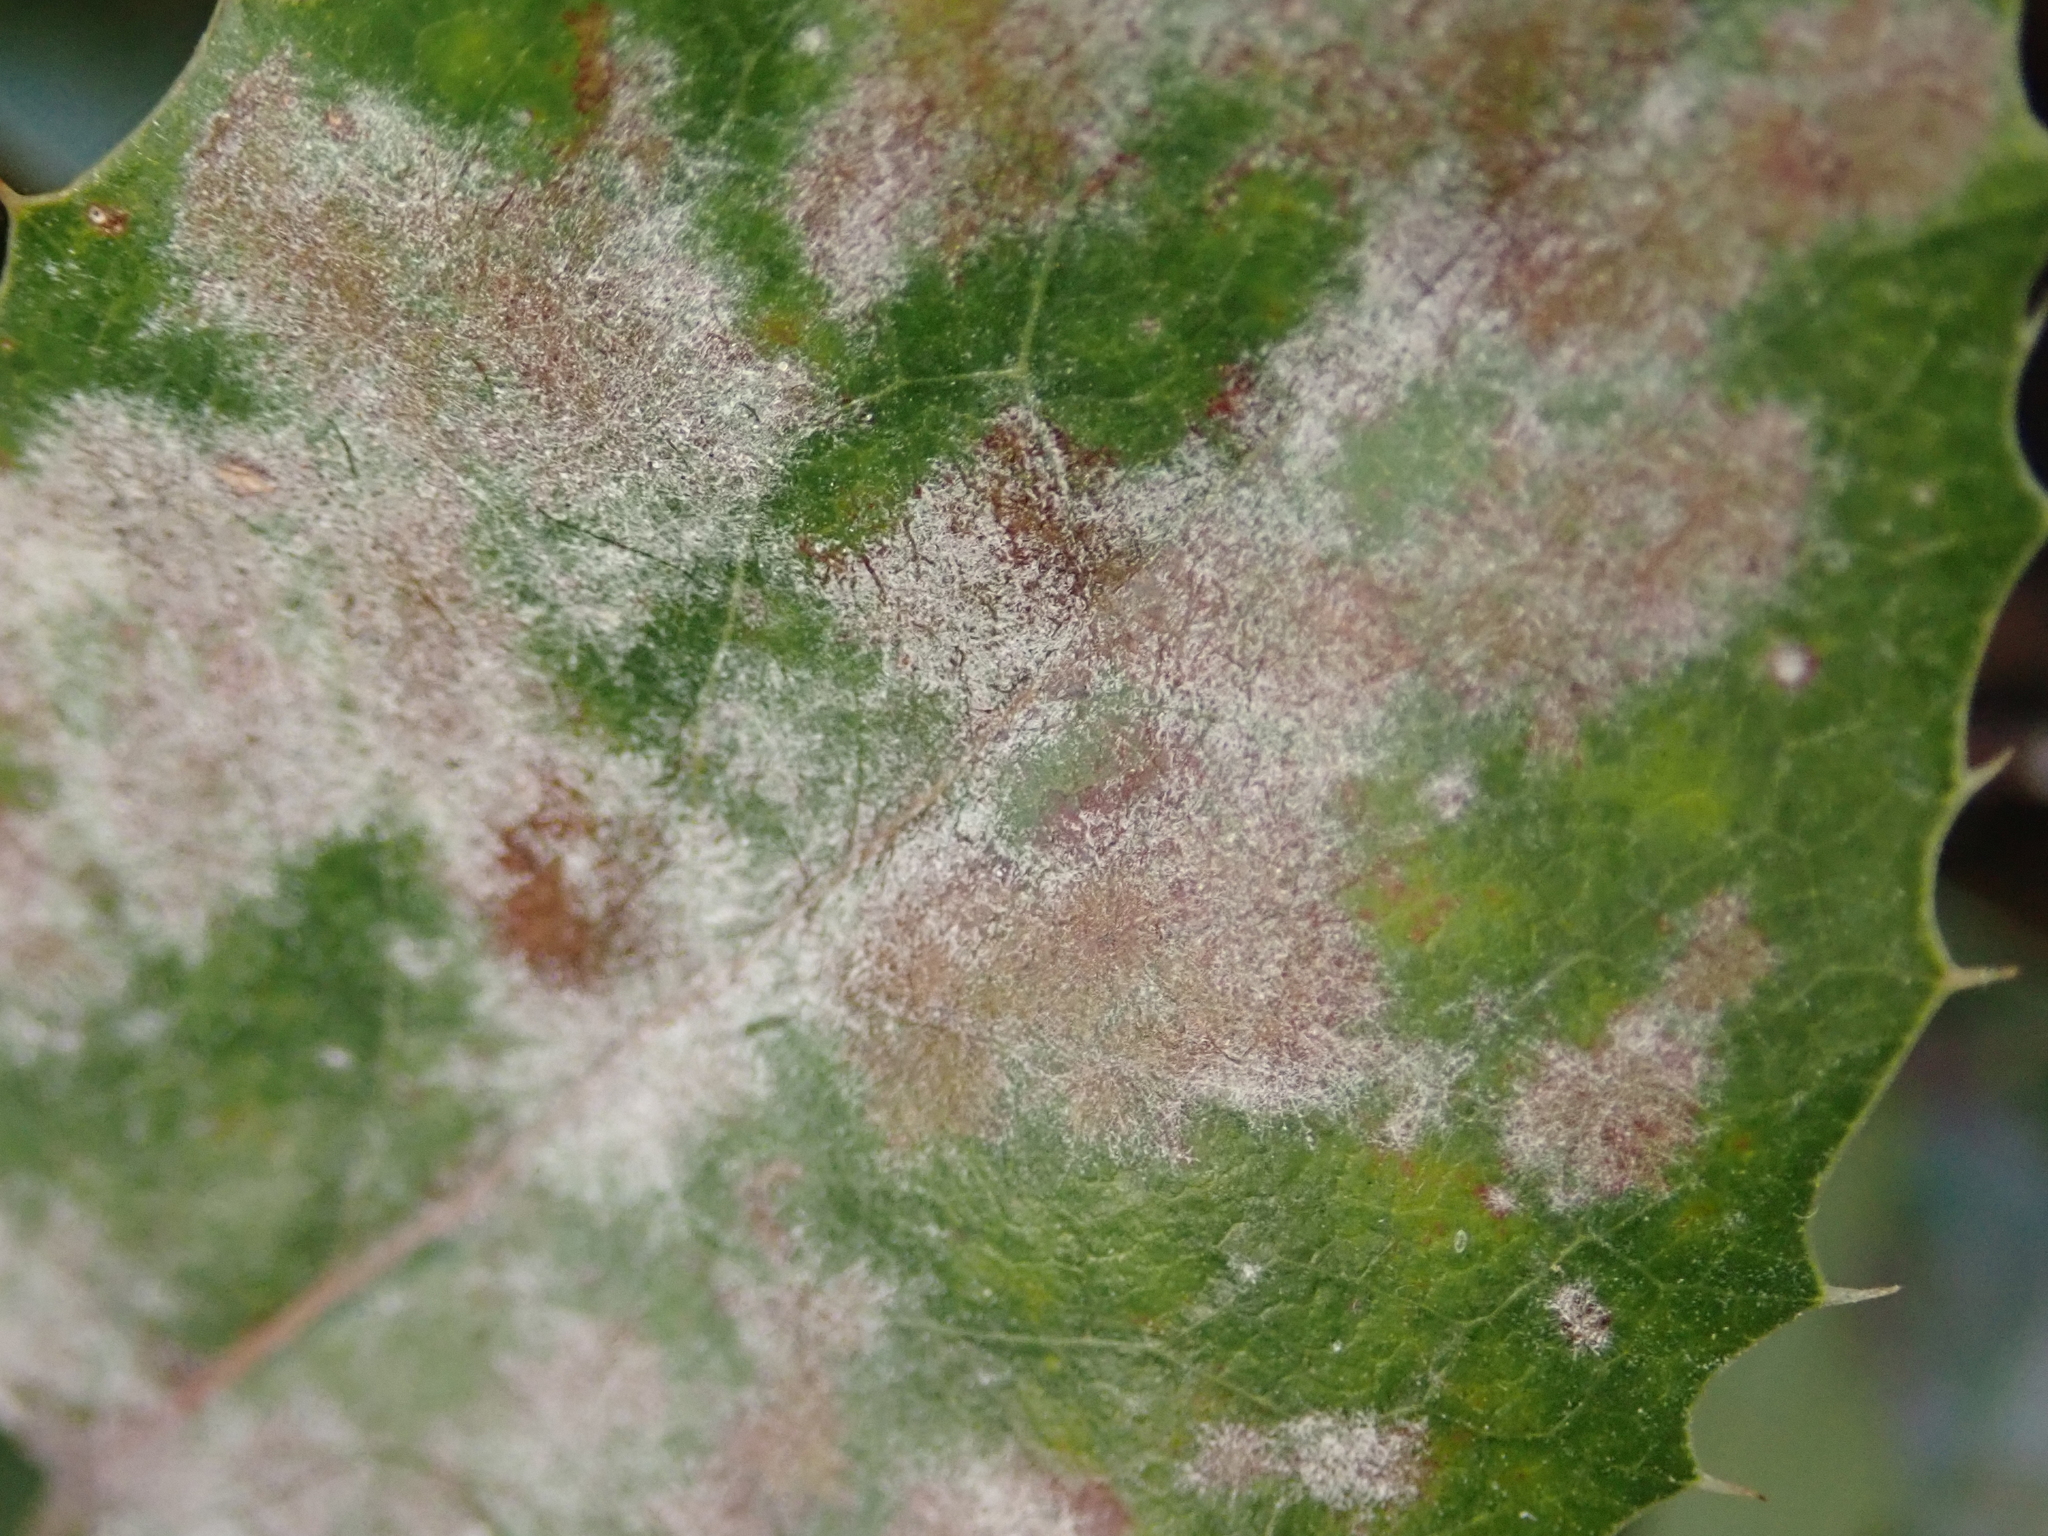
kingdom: Fungi
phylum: Ascomycota
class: Leotiomycetes
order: Helotiales
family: Erysiphaceae
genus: Erysiphe
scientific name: Erysiphe berberidis
